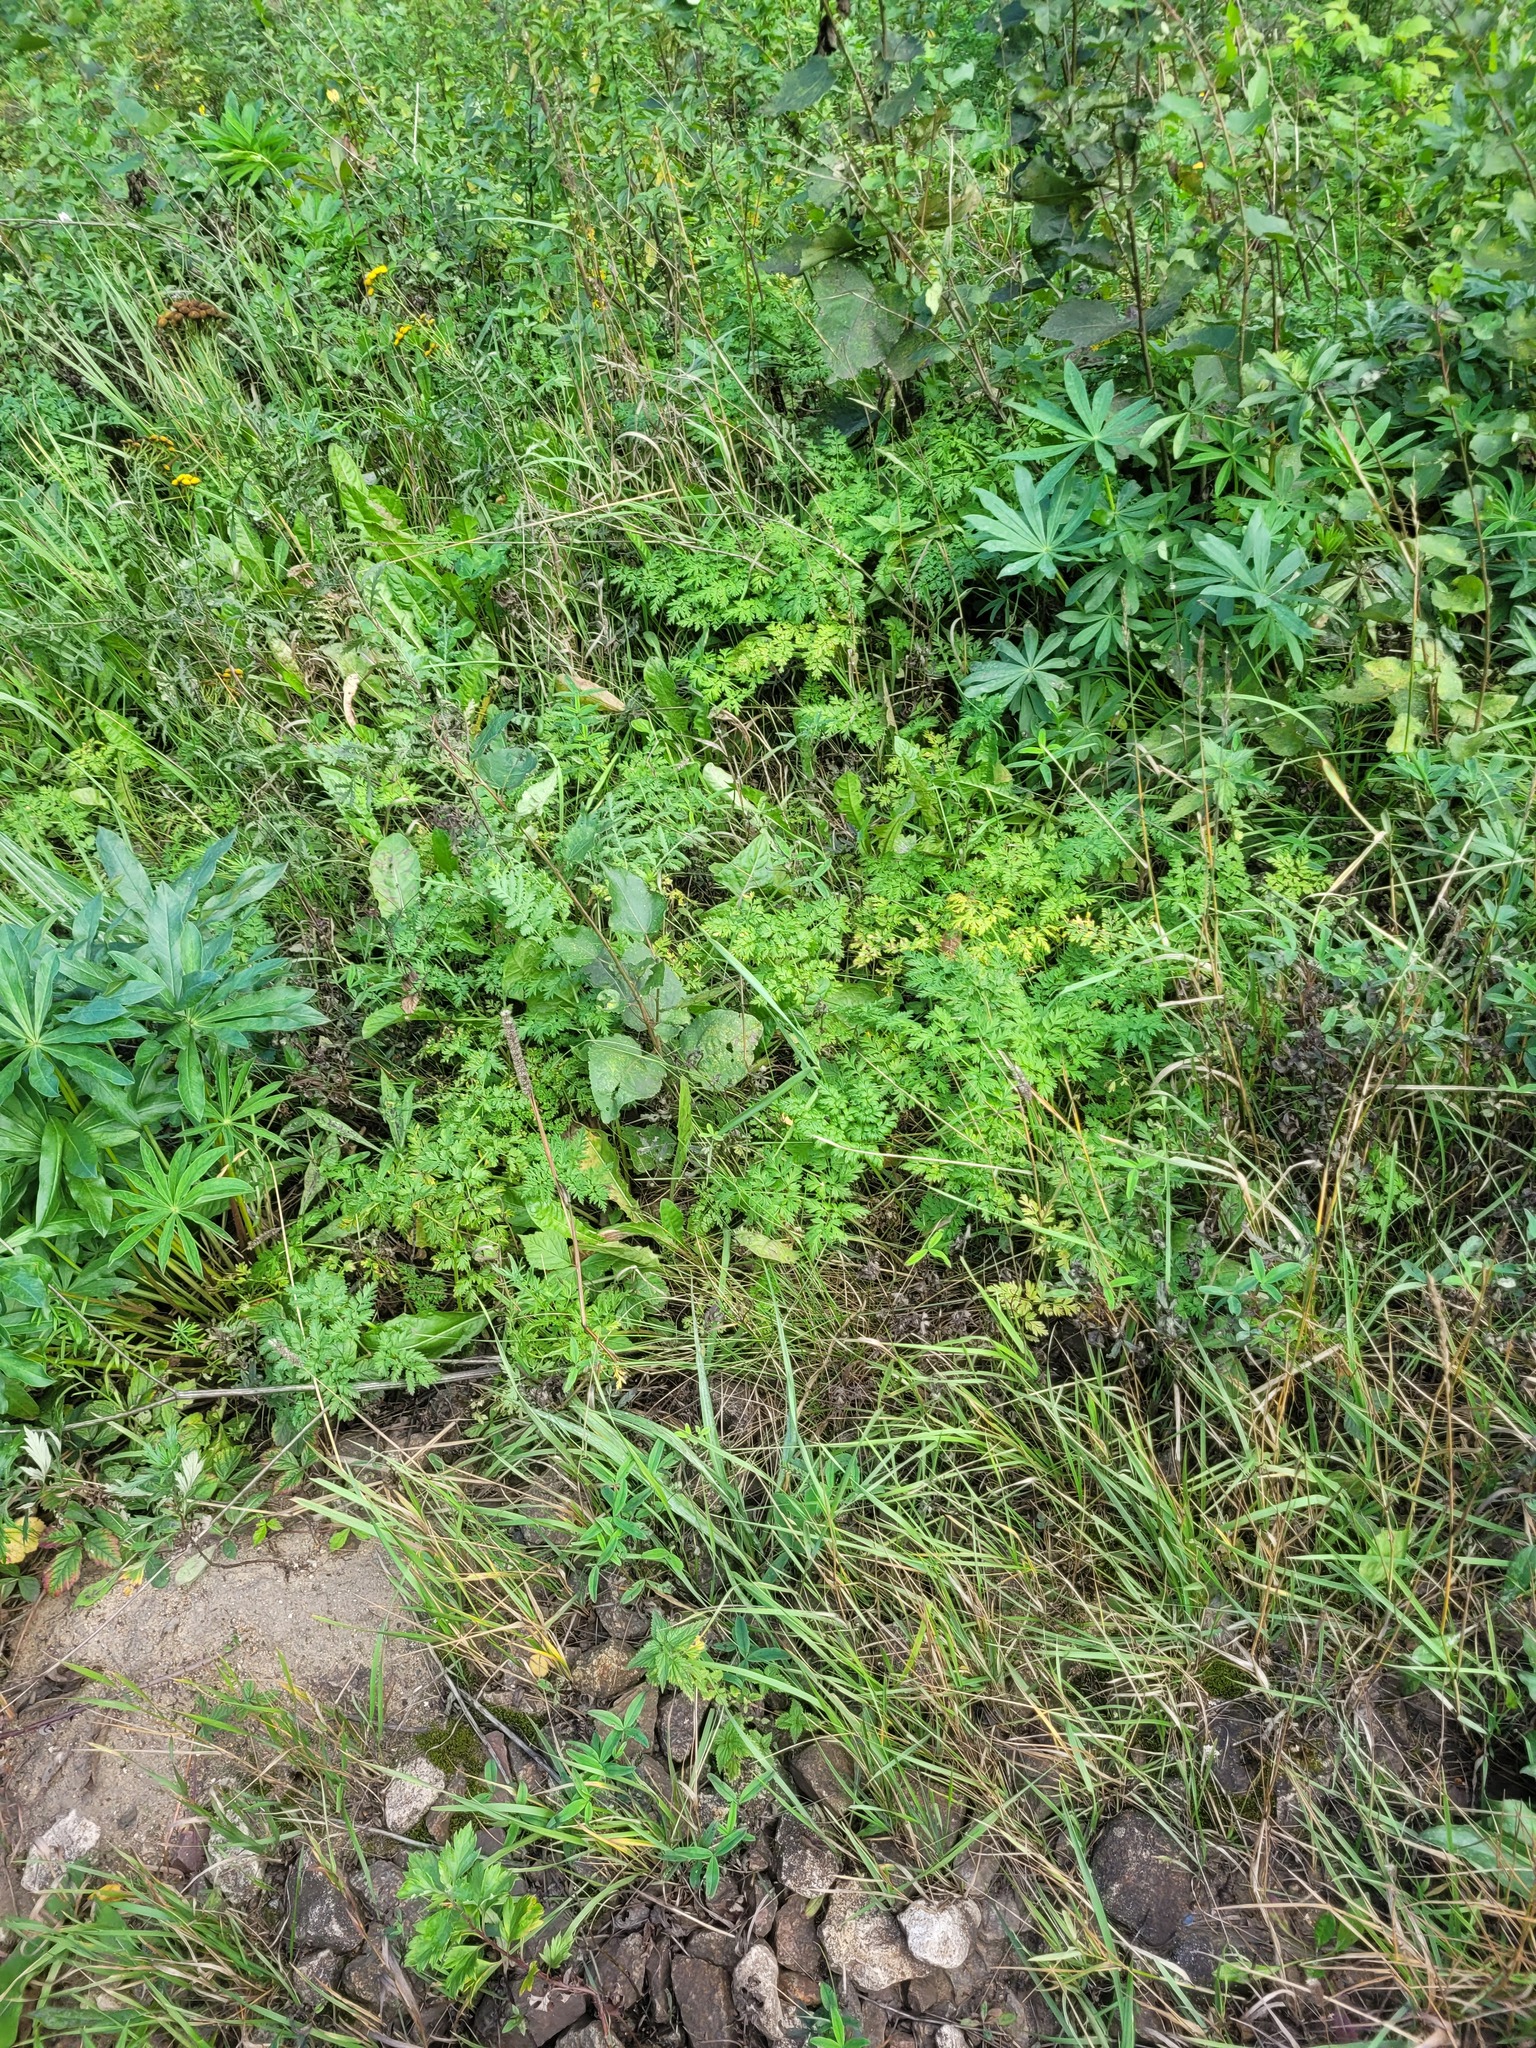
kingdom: Plantae
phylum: Tracheophyta
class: Magnoliopsida
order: Apiales
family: Apiaceae
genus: Anthriscus
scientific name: Anthriscus sylvestris
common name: Cow parsley
